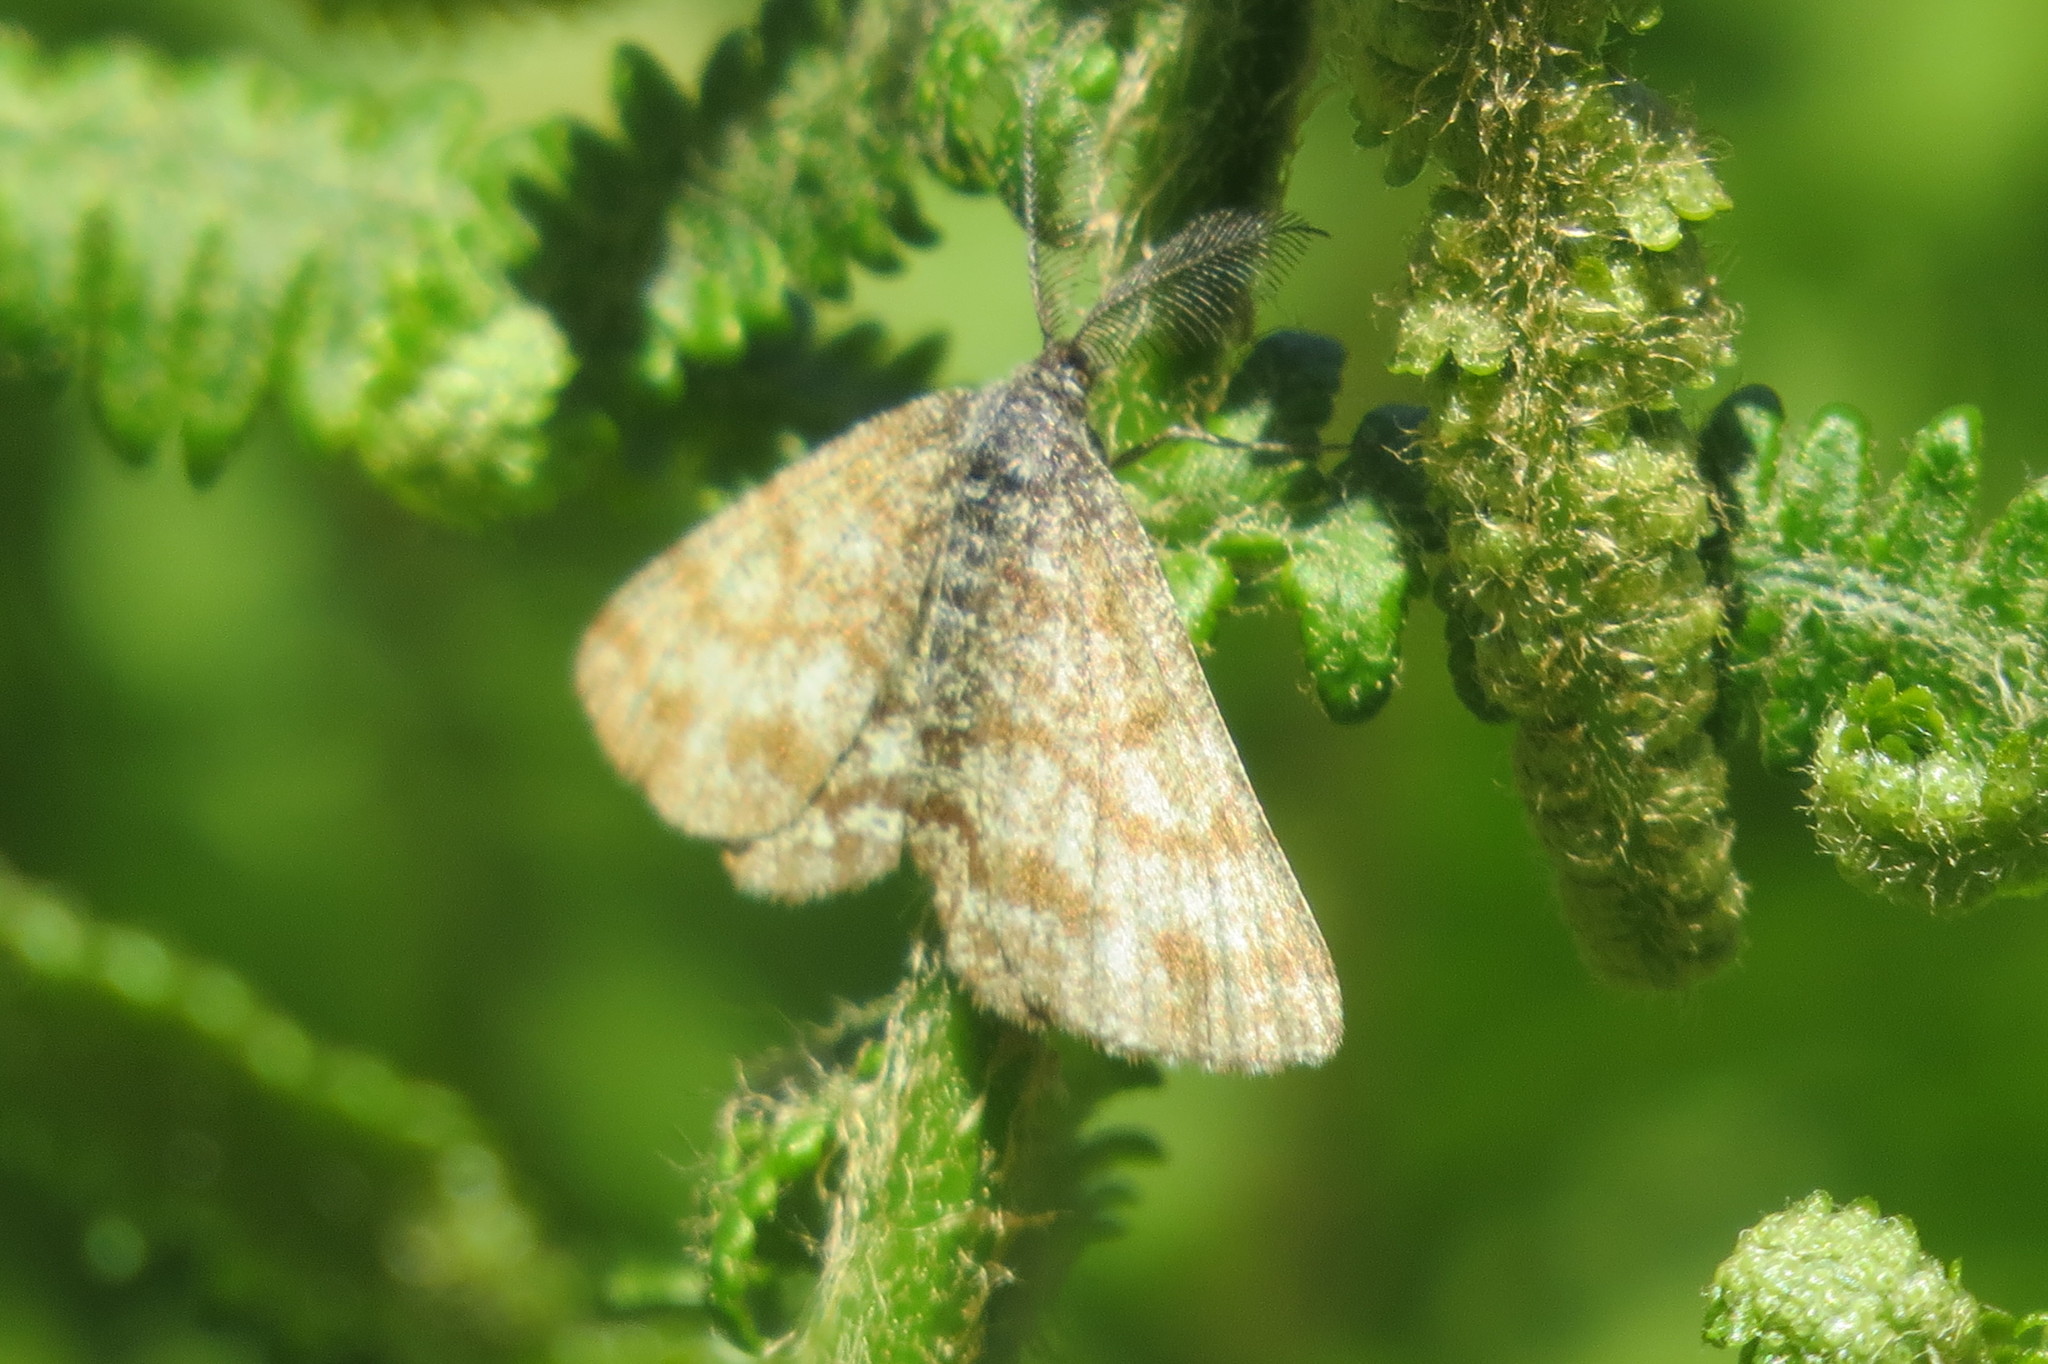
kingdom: Animalia
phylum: Arthropoda
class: Insecta
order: Lepidoptera
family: Geometridae
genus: Ematurga
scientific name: Ematurga atomaria
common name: Common heath
